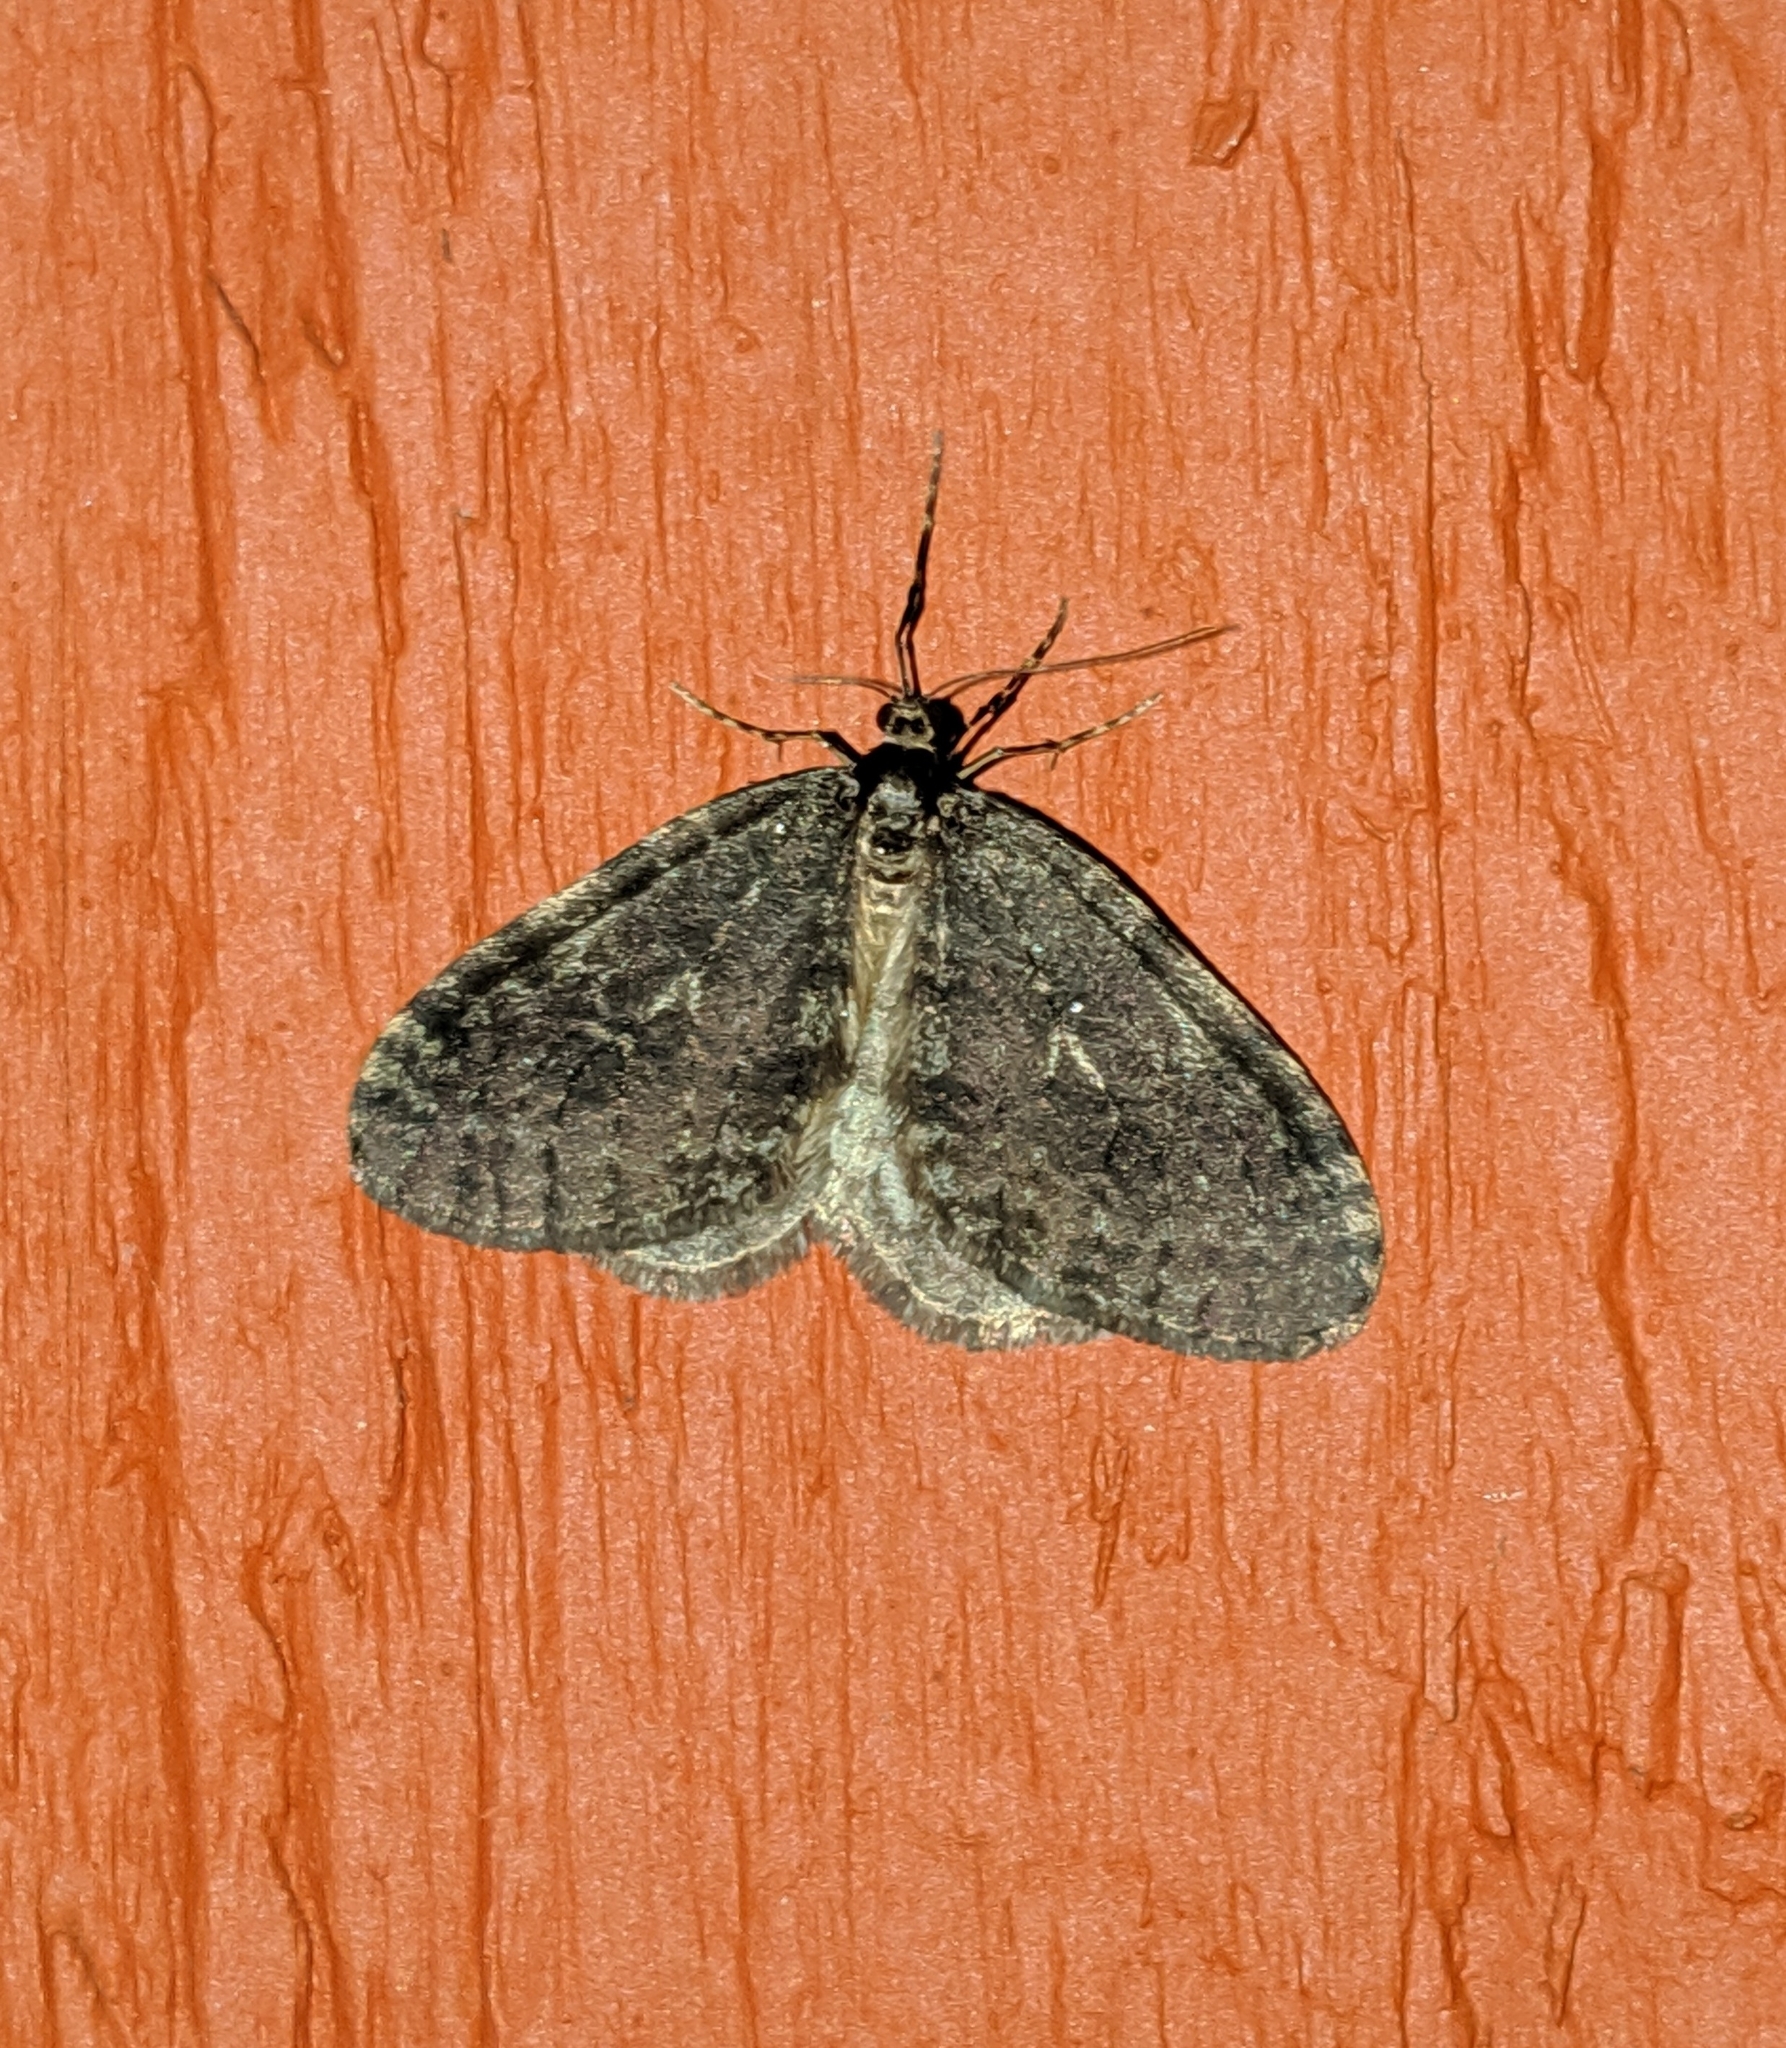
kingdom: Animalia
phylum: Arthropoda
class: Insecta
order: Lepidoptera
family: Geometridae
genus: Operophtera
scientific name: Operophtera brumata
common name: Winter moth
